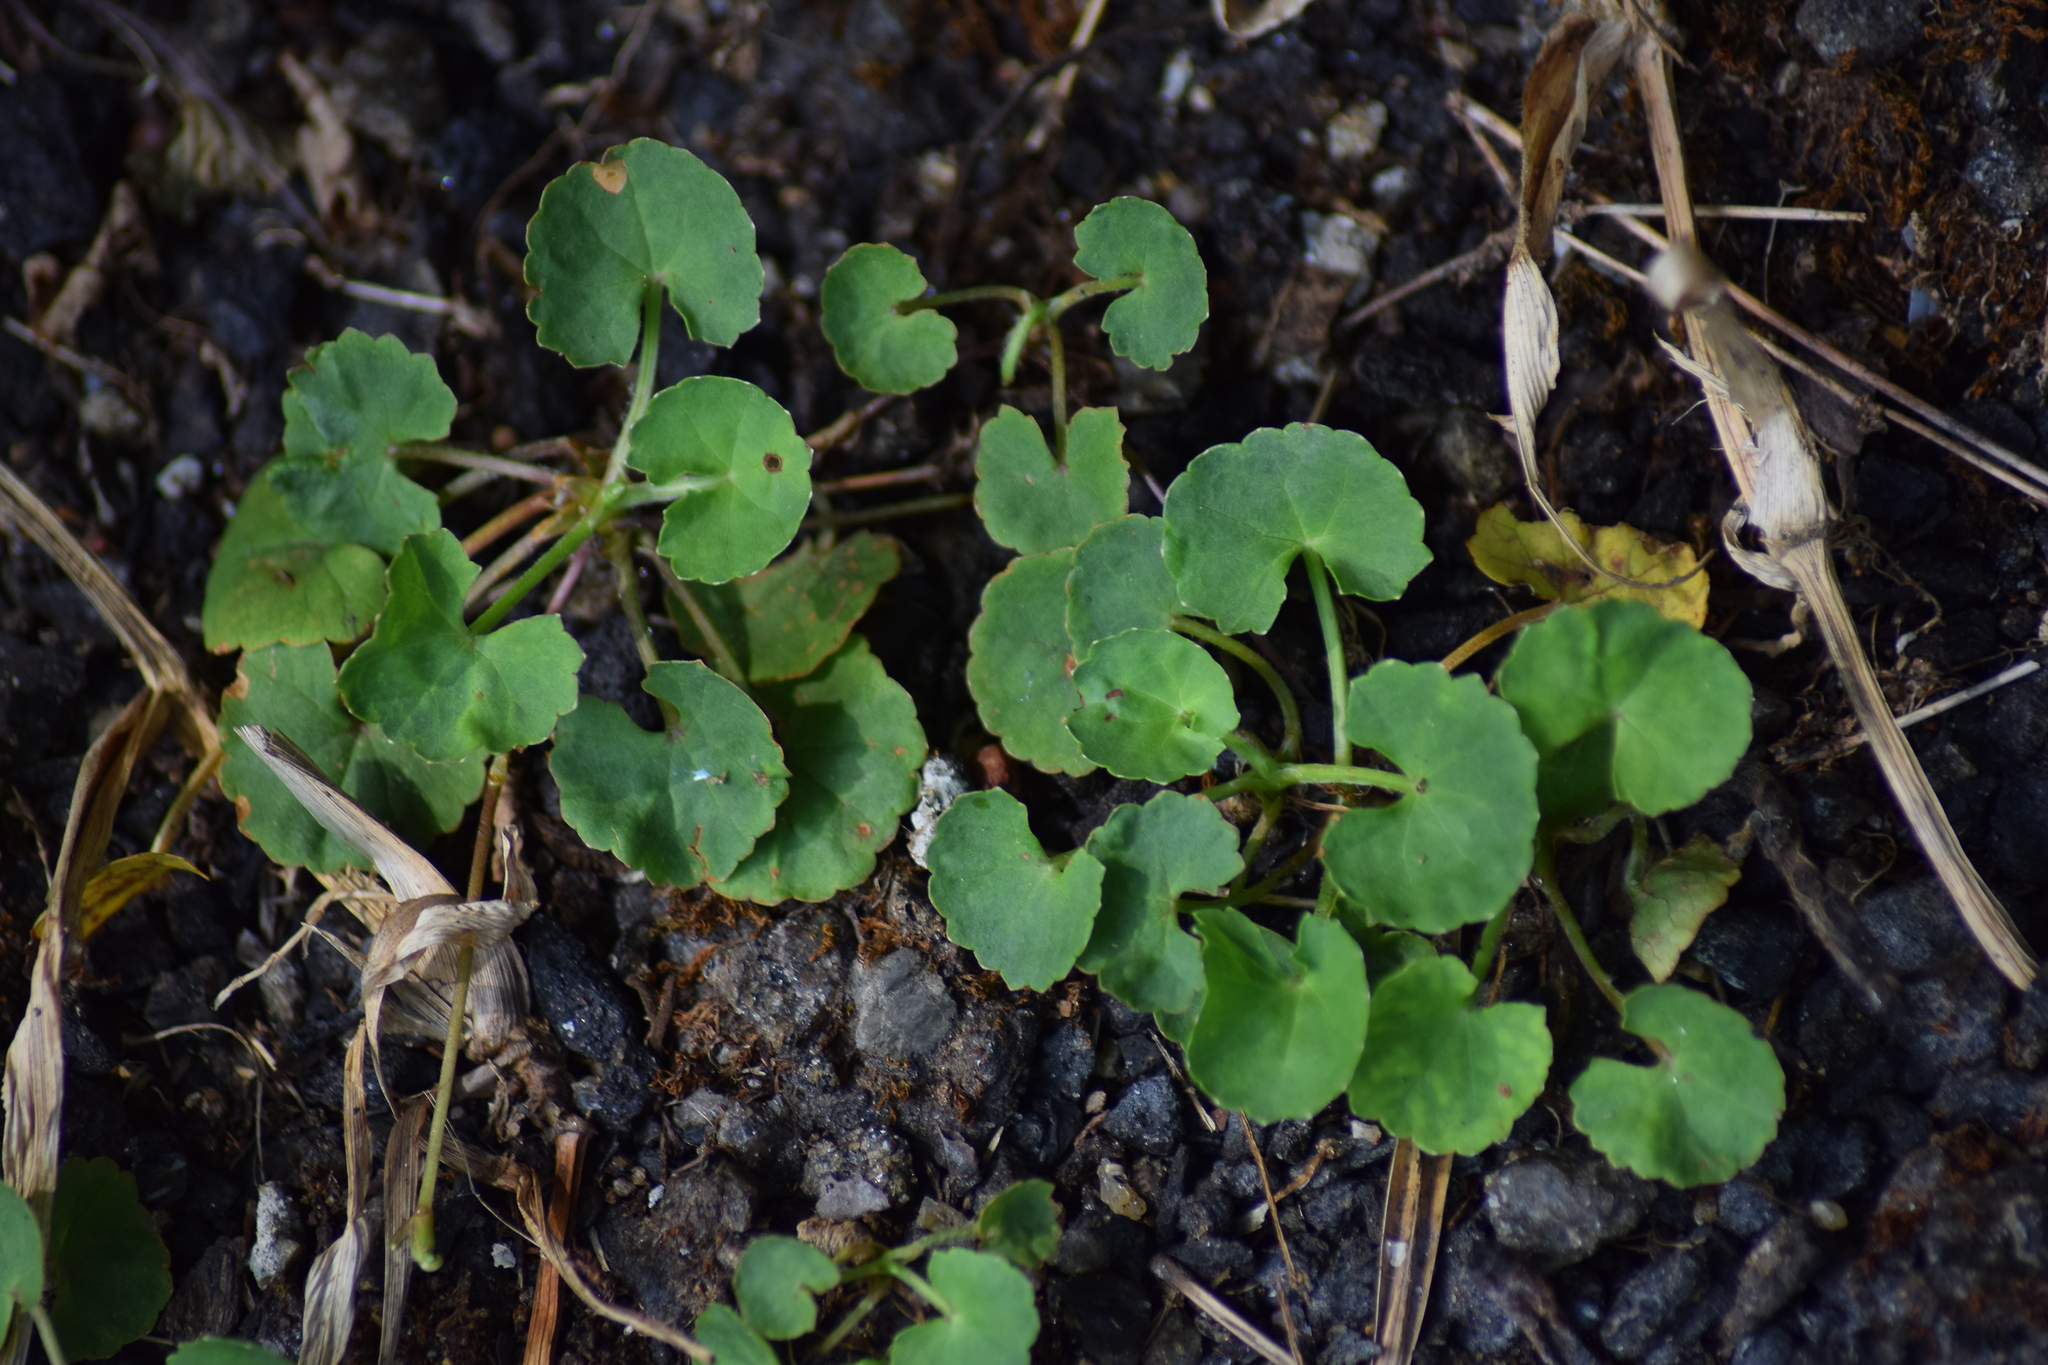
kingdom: Plantae
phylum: Tracheophyta
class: Magnoliopsida
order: Apiales
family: Apiaceae
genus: Centella
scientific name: Centella asiatica
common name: Spadeleaf
